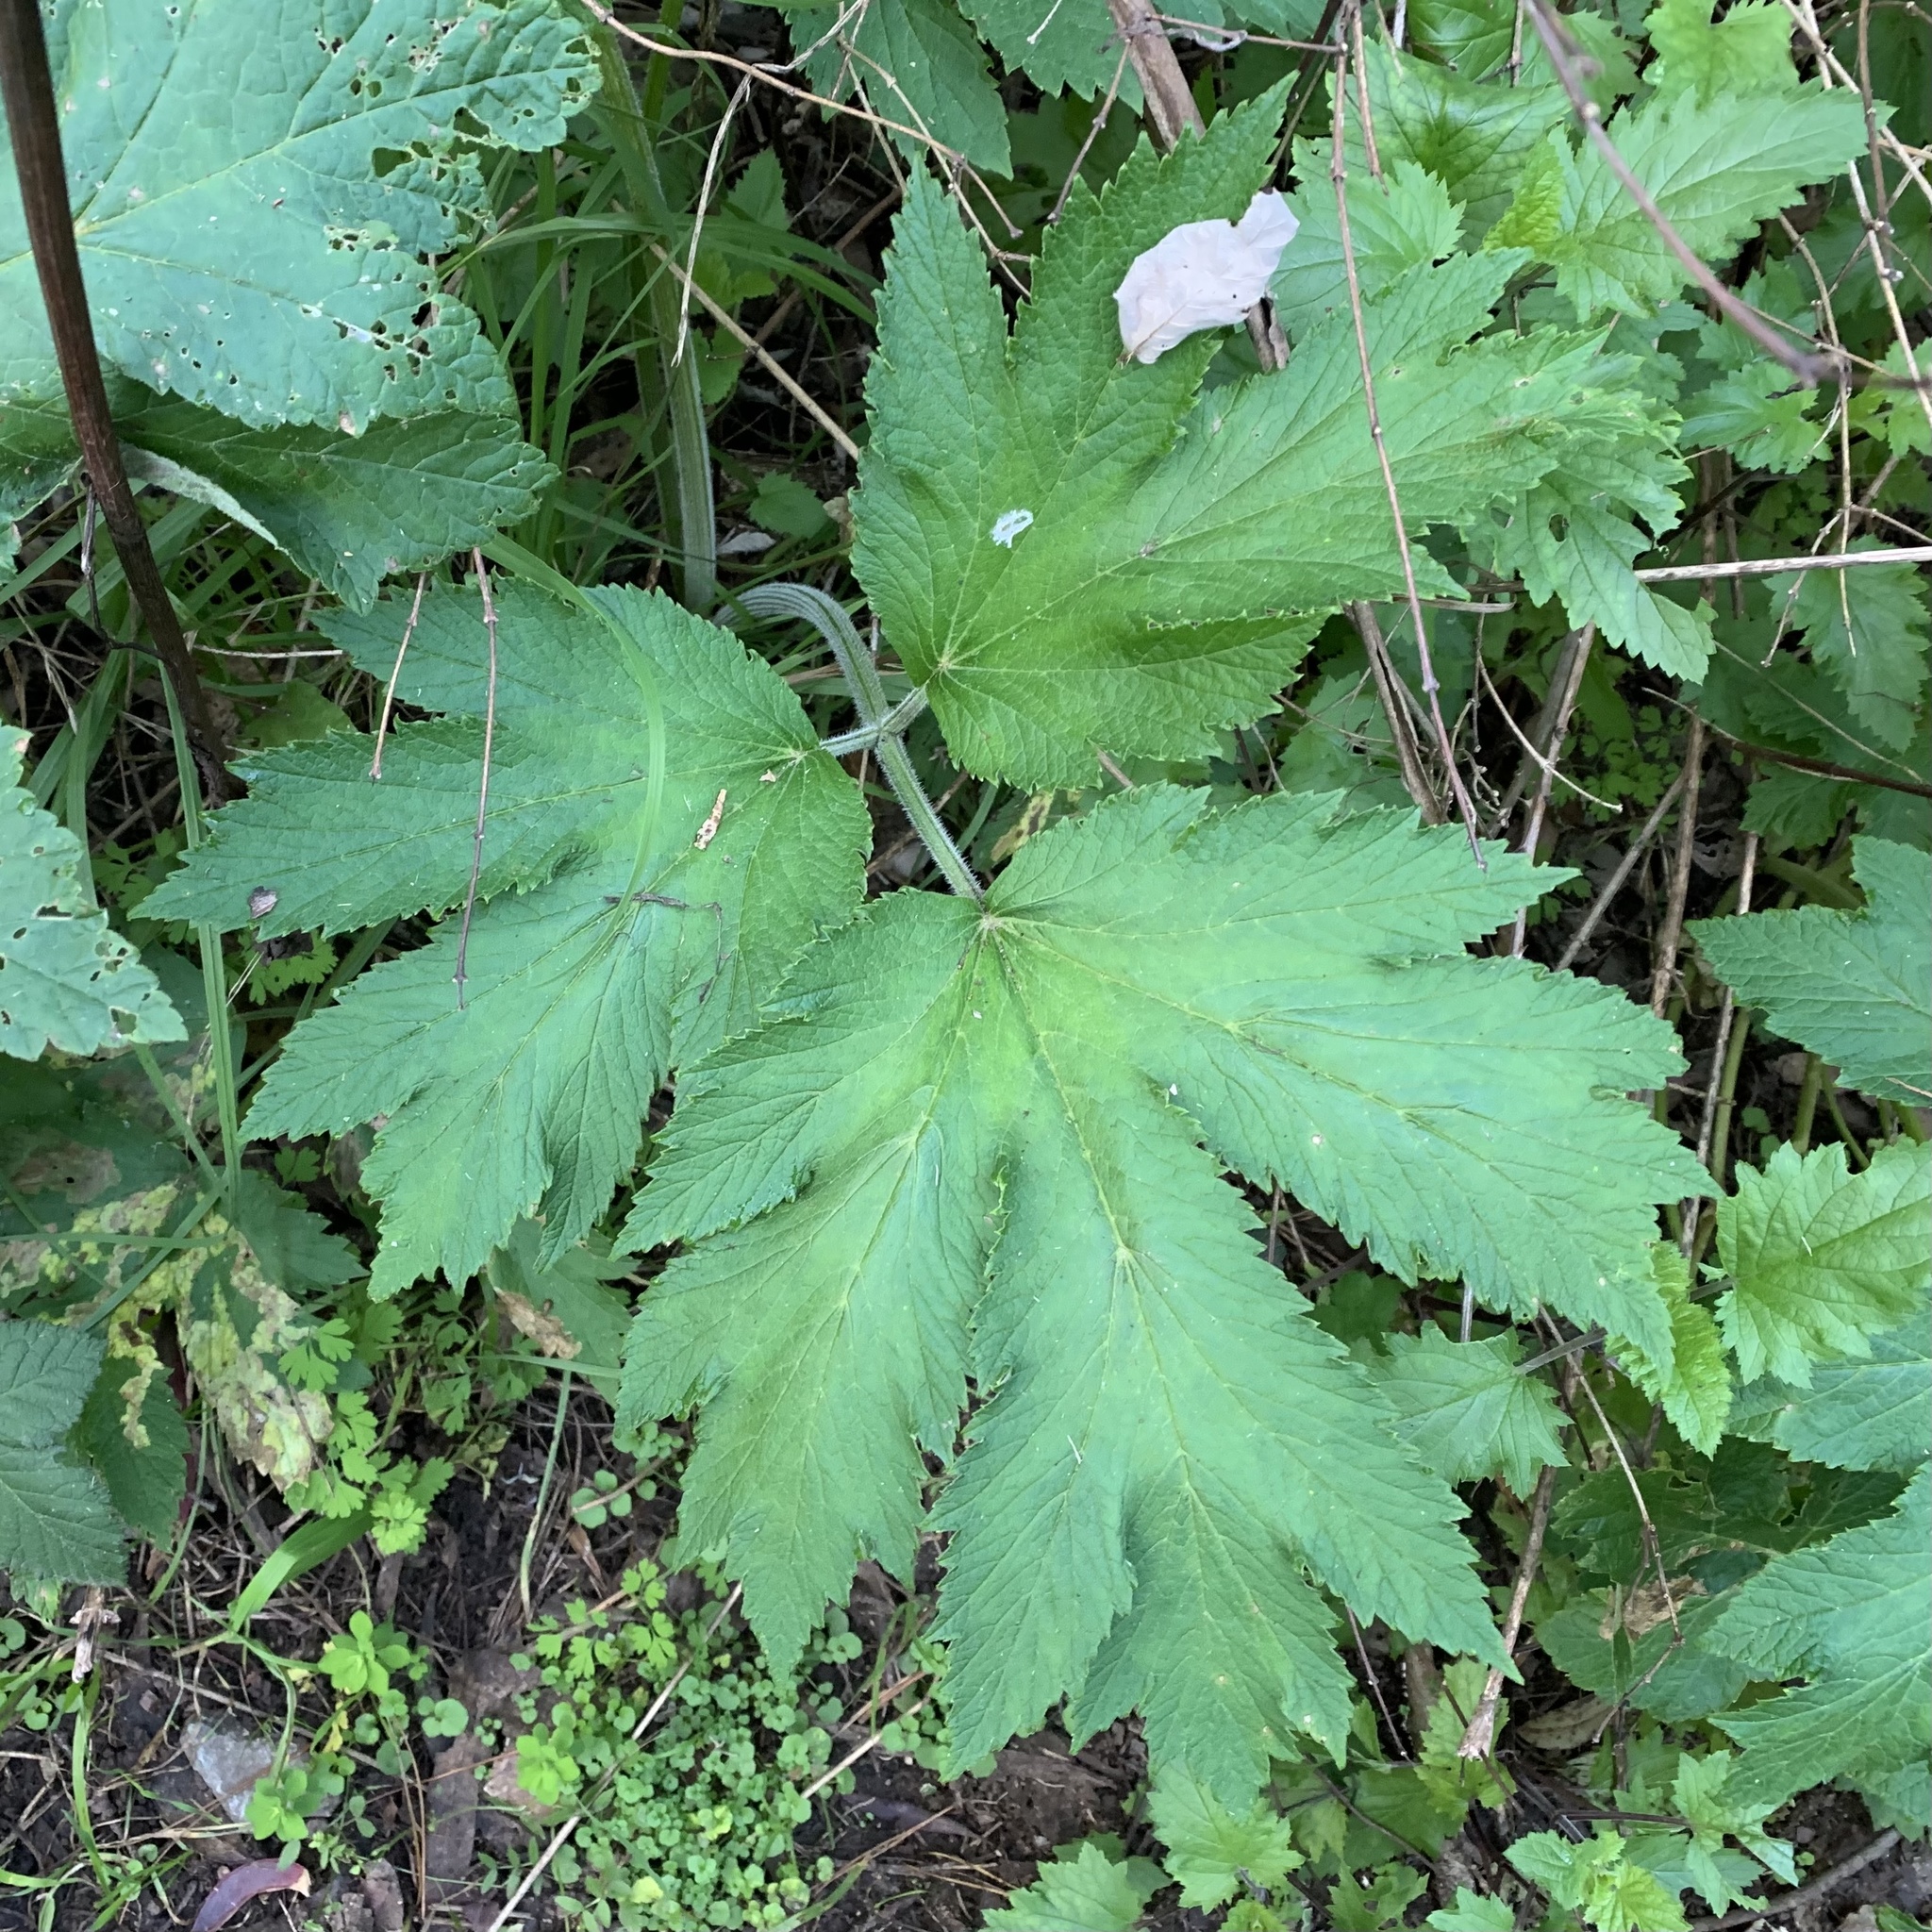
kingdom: Plantae
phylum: Tracheophyta
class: Magnoliopsida
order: Apiales
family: Apiaceae
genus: Heracleum
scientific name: Heracleum maximum
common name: American cow parsnip
